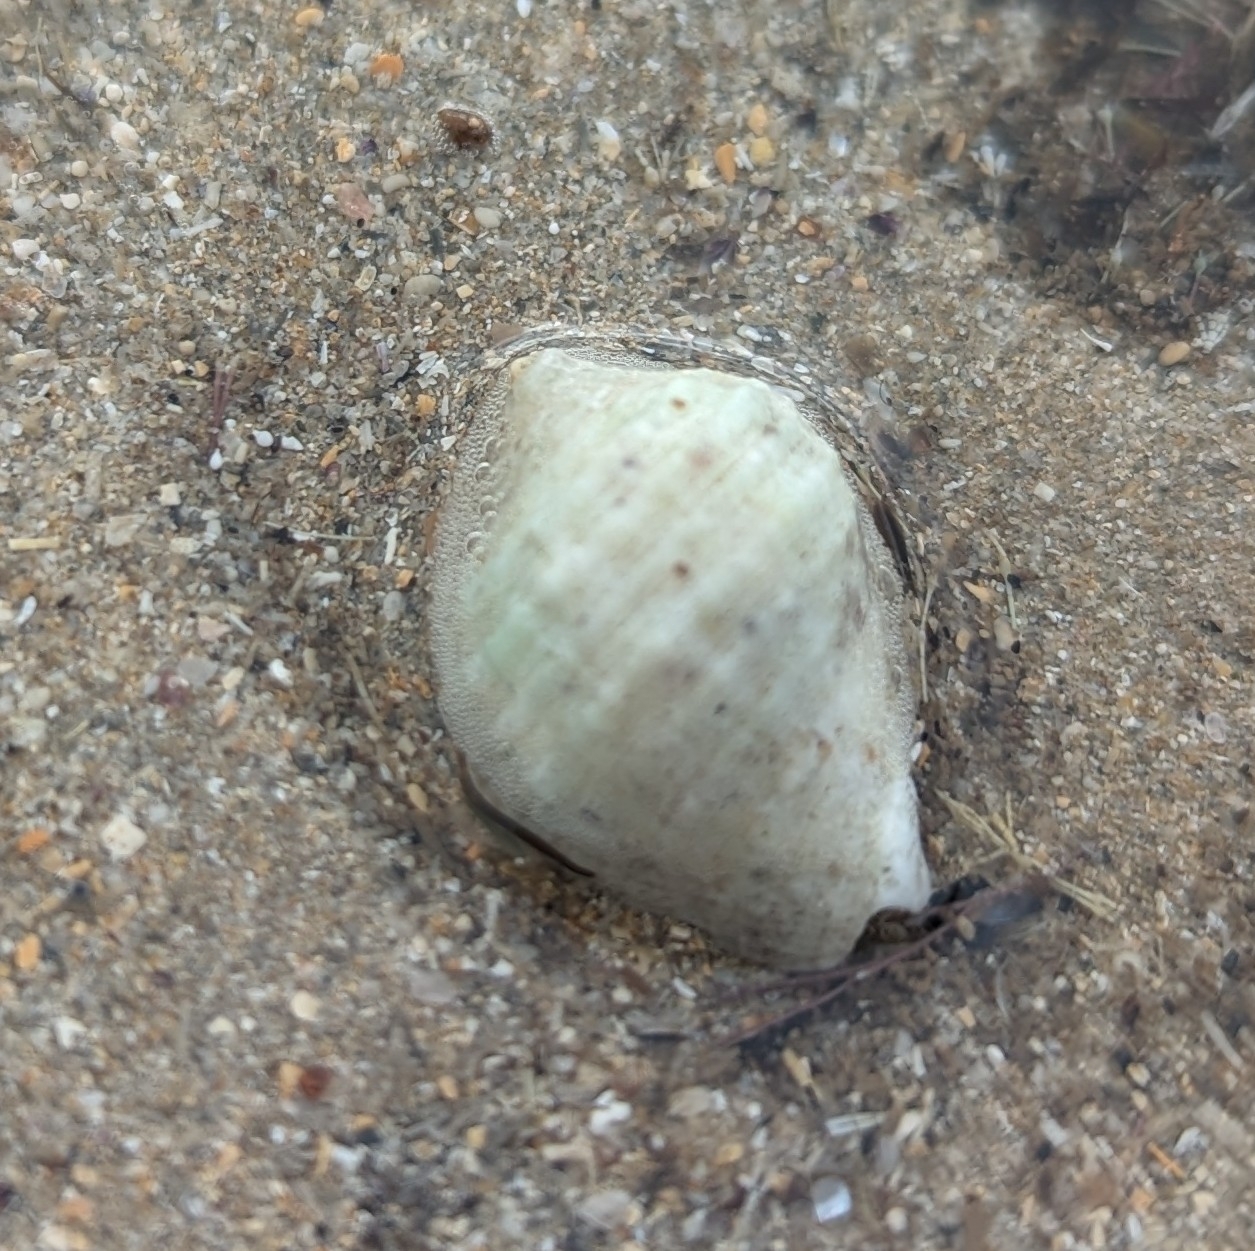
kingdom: Animalia
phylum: Mollusca
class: Gastropoda
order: Neogastropoda
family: Muricidae
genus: Dicathais
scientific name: Dicathais orbita
